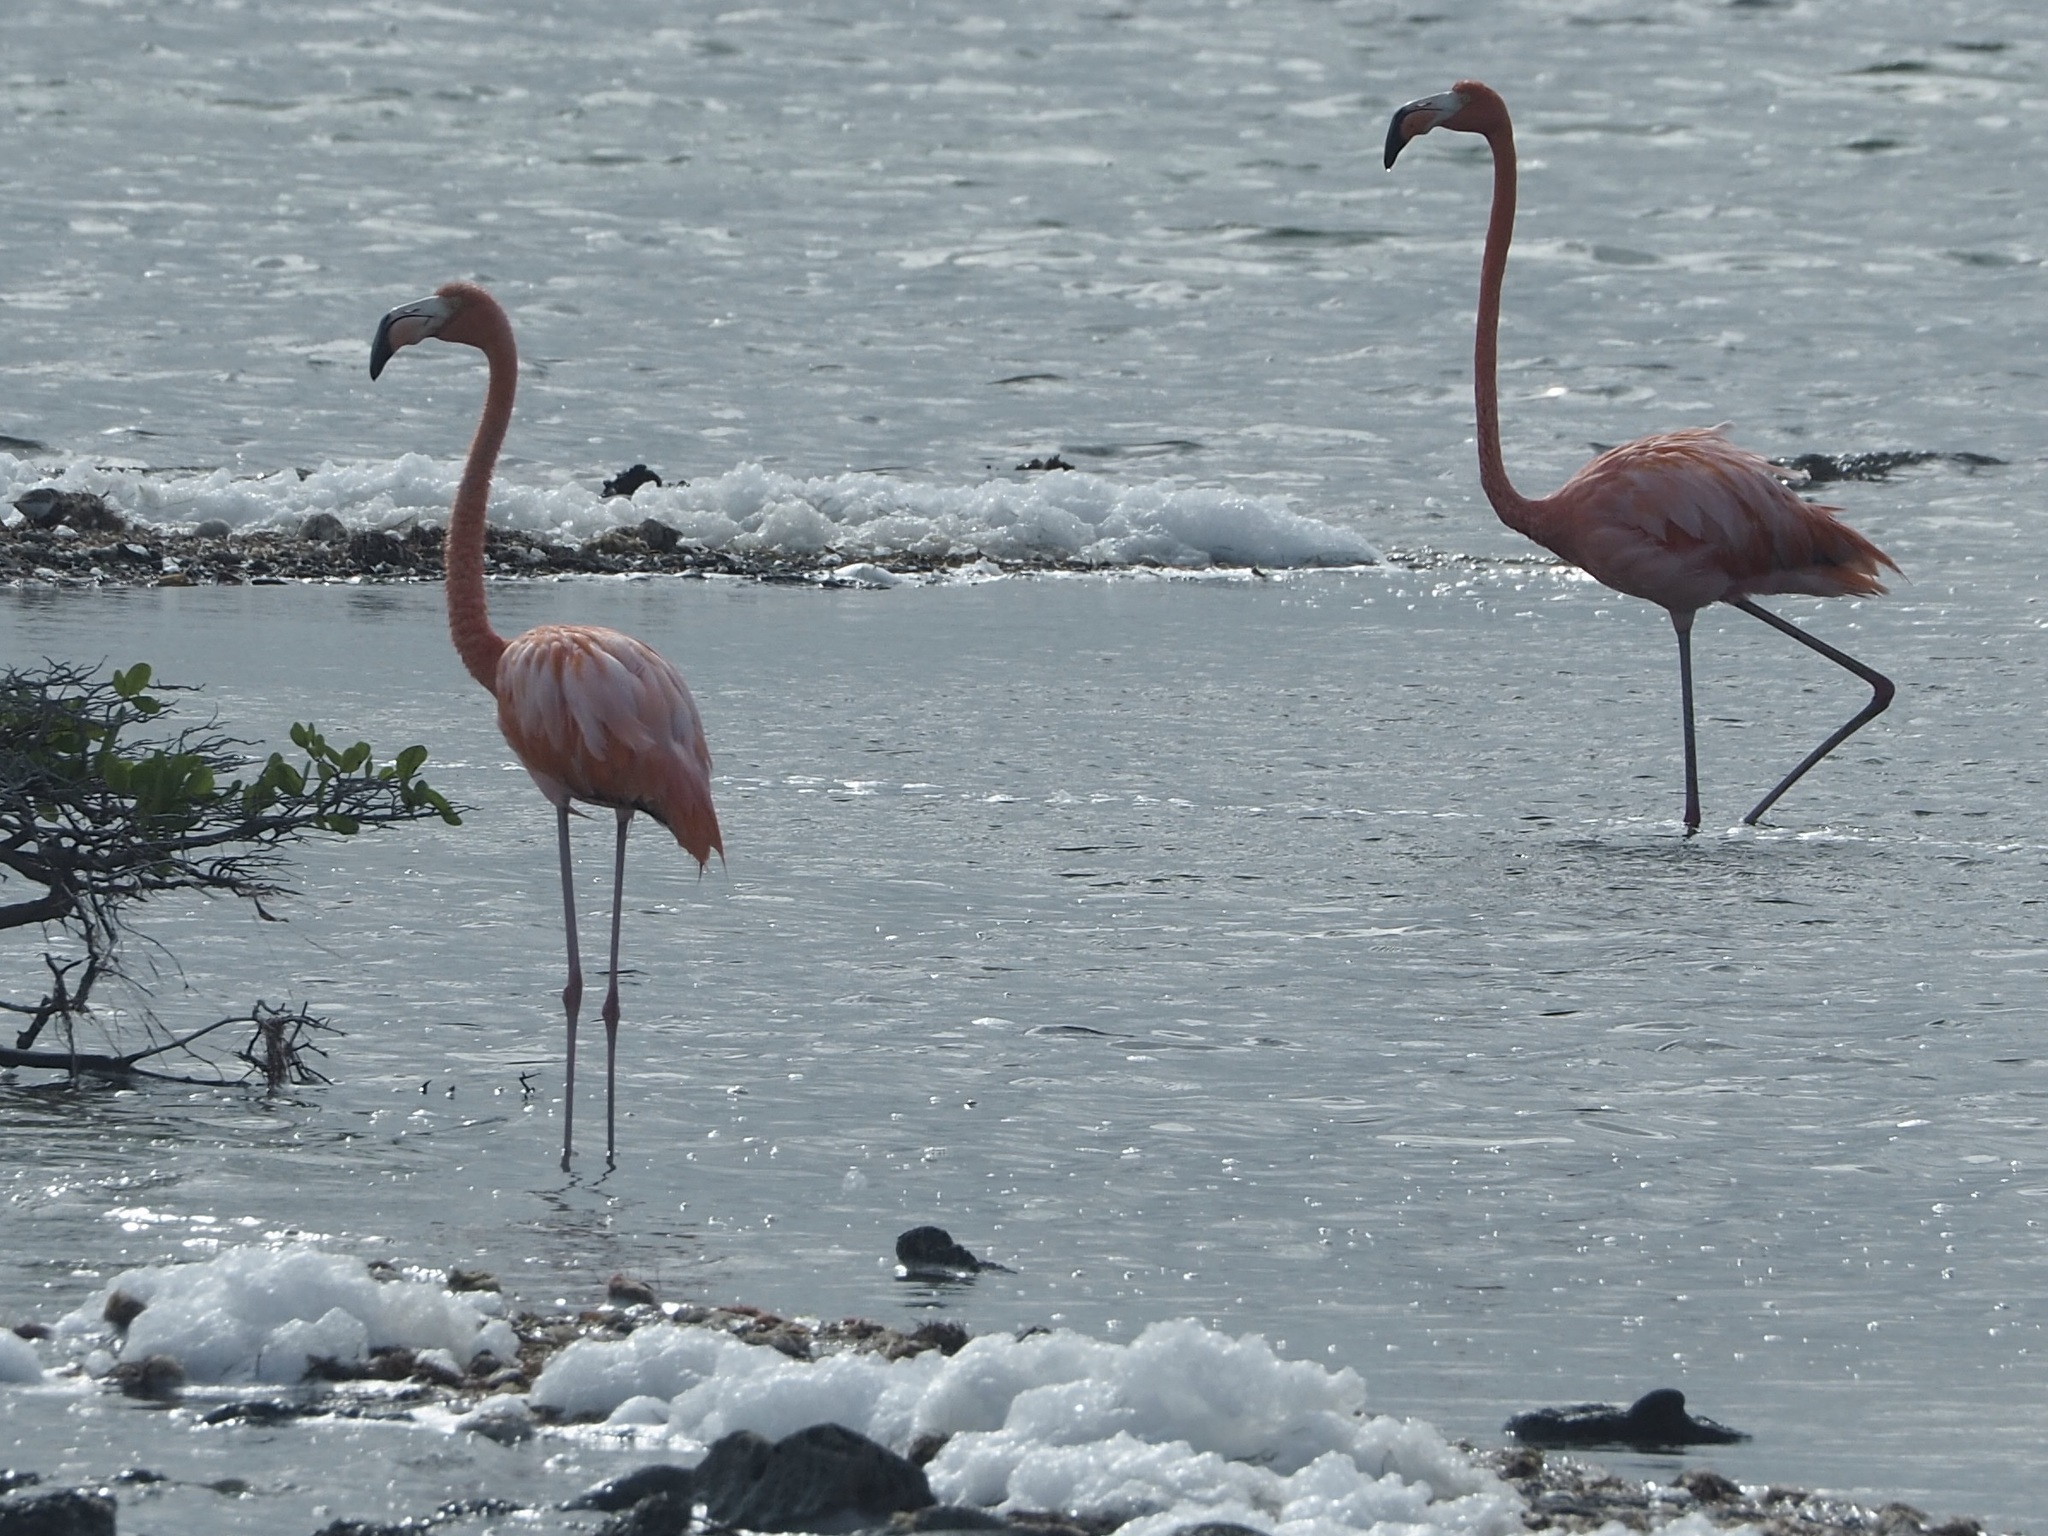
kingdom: Animalia
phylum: Chordata
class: Aves
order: Phoenicopteriformes
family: Phoenicopteridae
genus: Phoenicopterus
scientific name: Phoenicopterus ruber
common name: American flamingo
